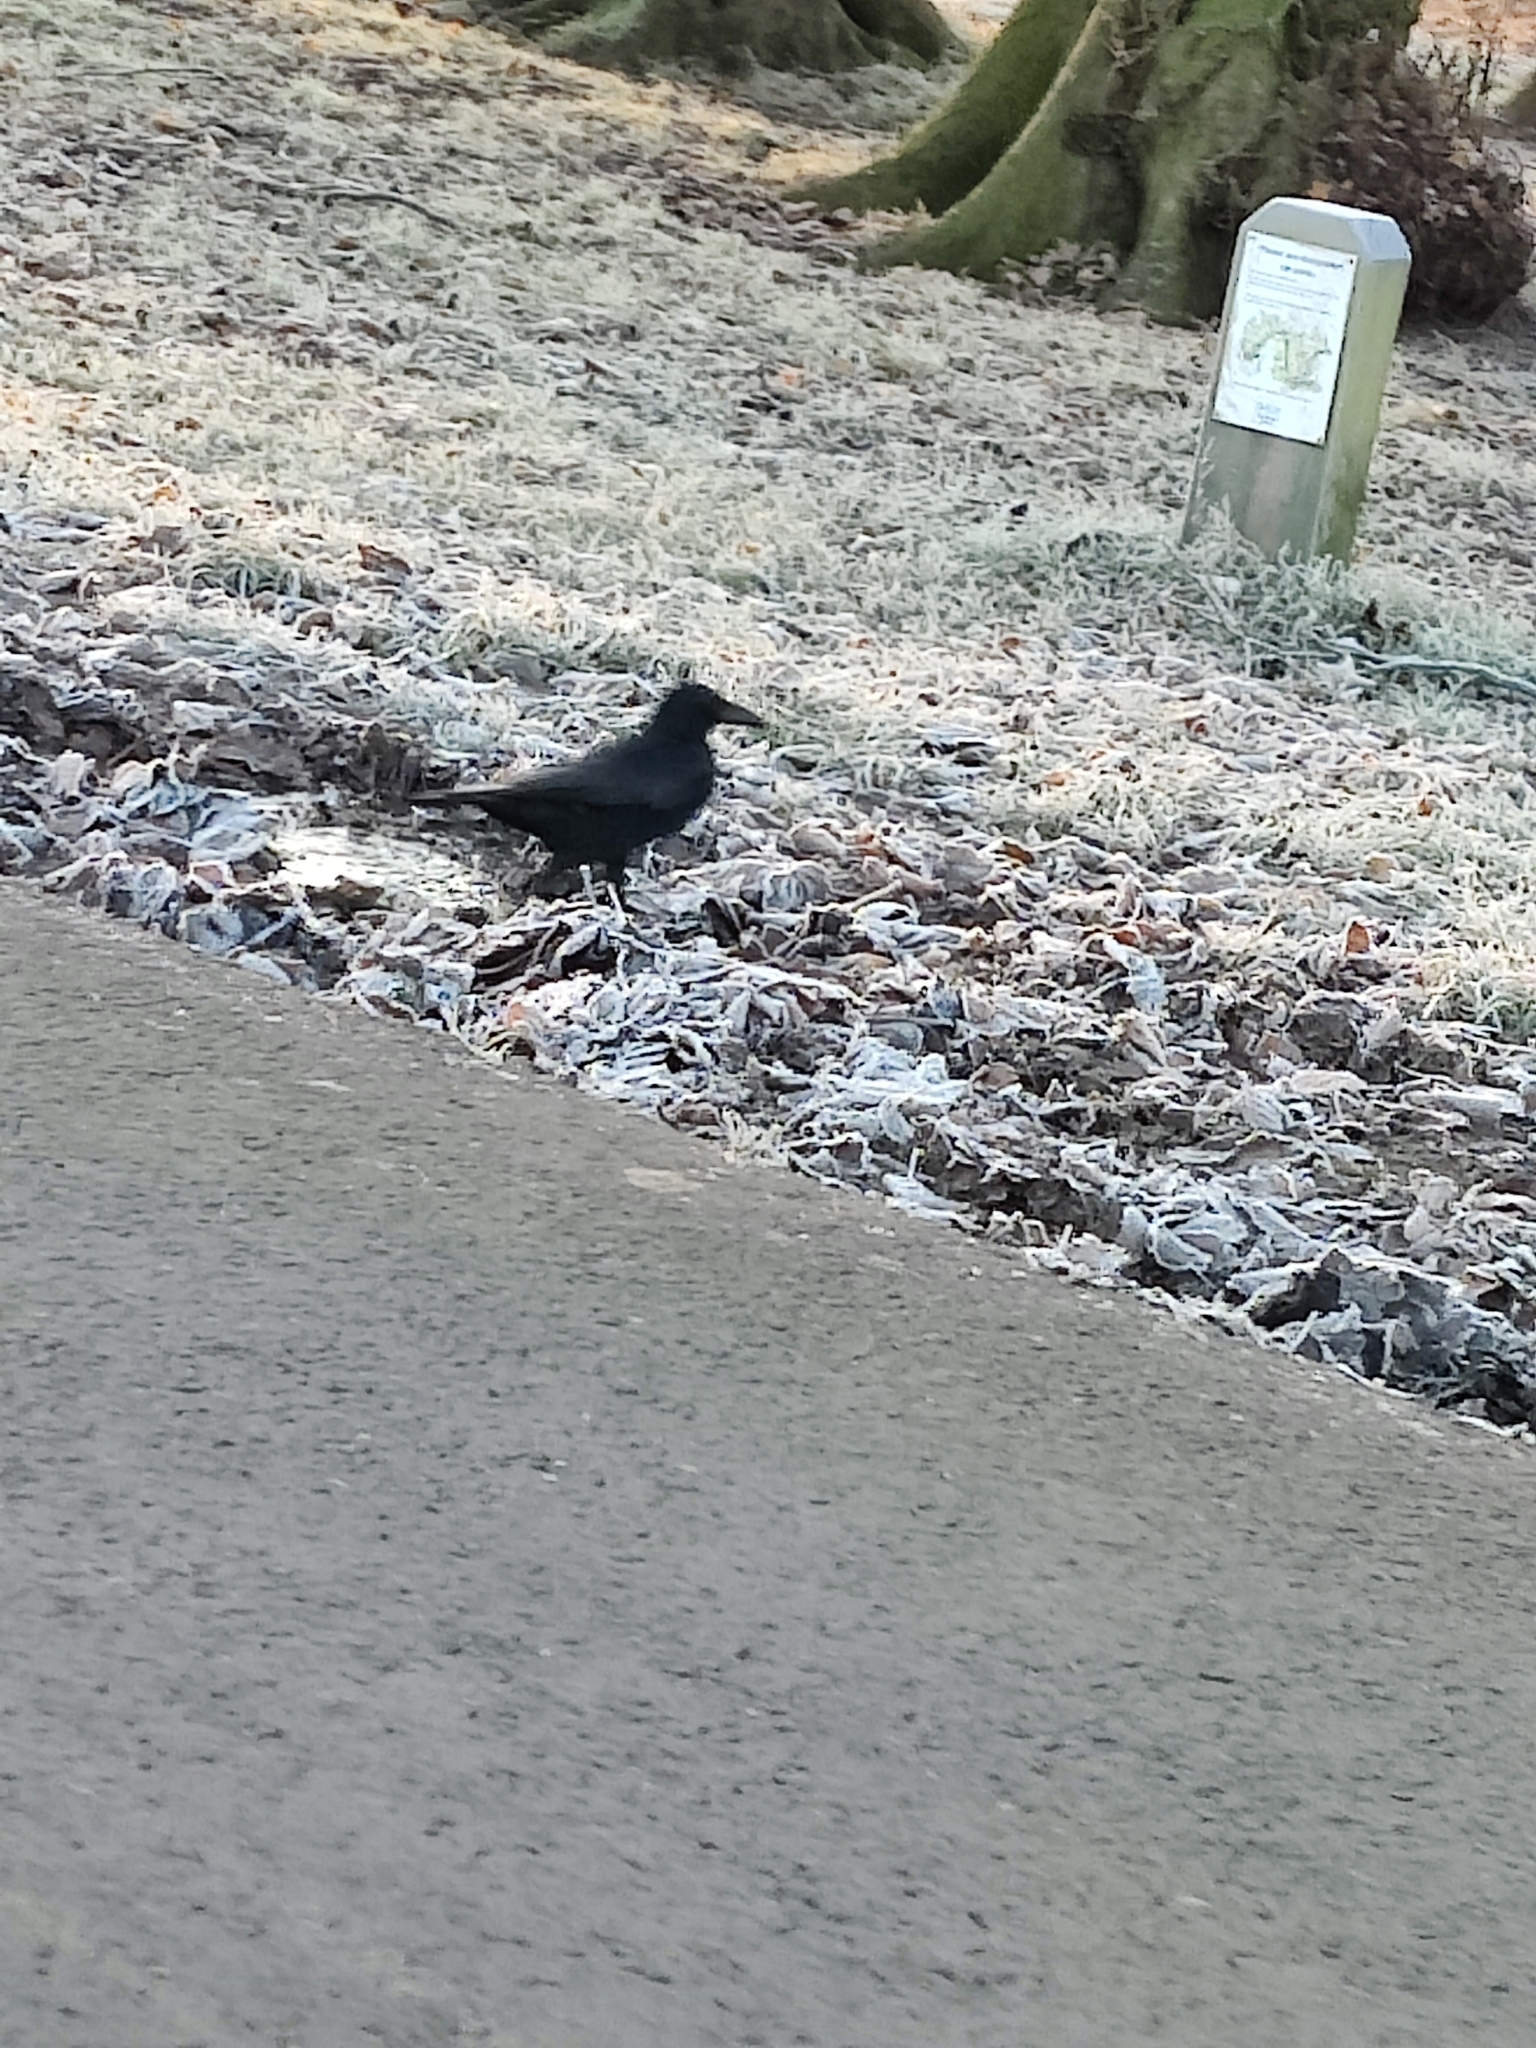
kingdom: Animalia
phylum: Chordata
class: Aves
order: Passeriformes
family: Corvidae
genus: Corvus
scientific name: Corvus corone
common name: Carrion crow
